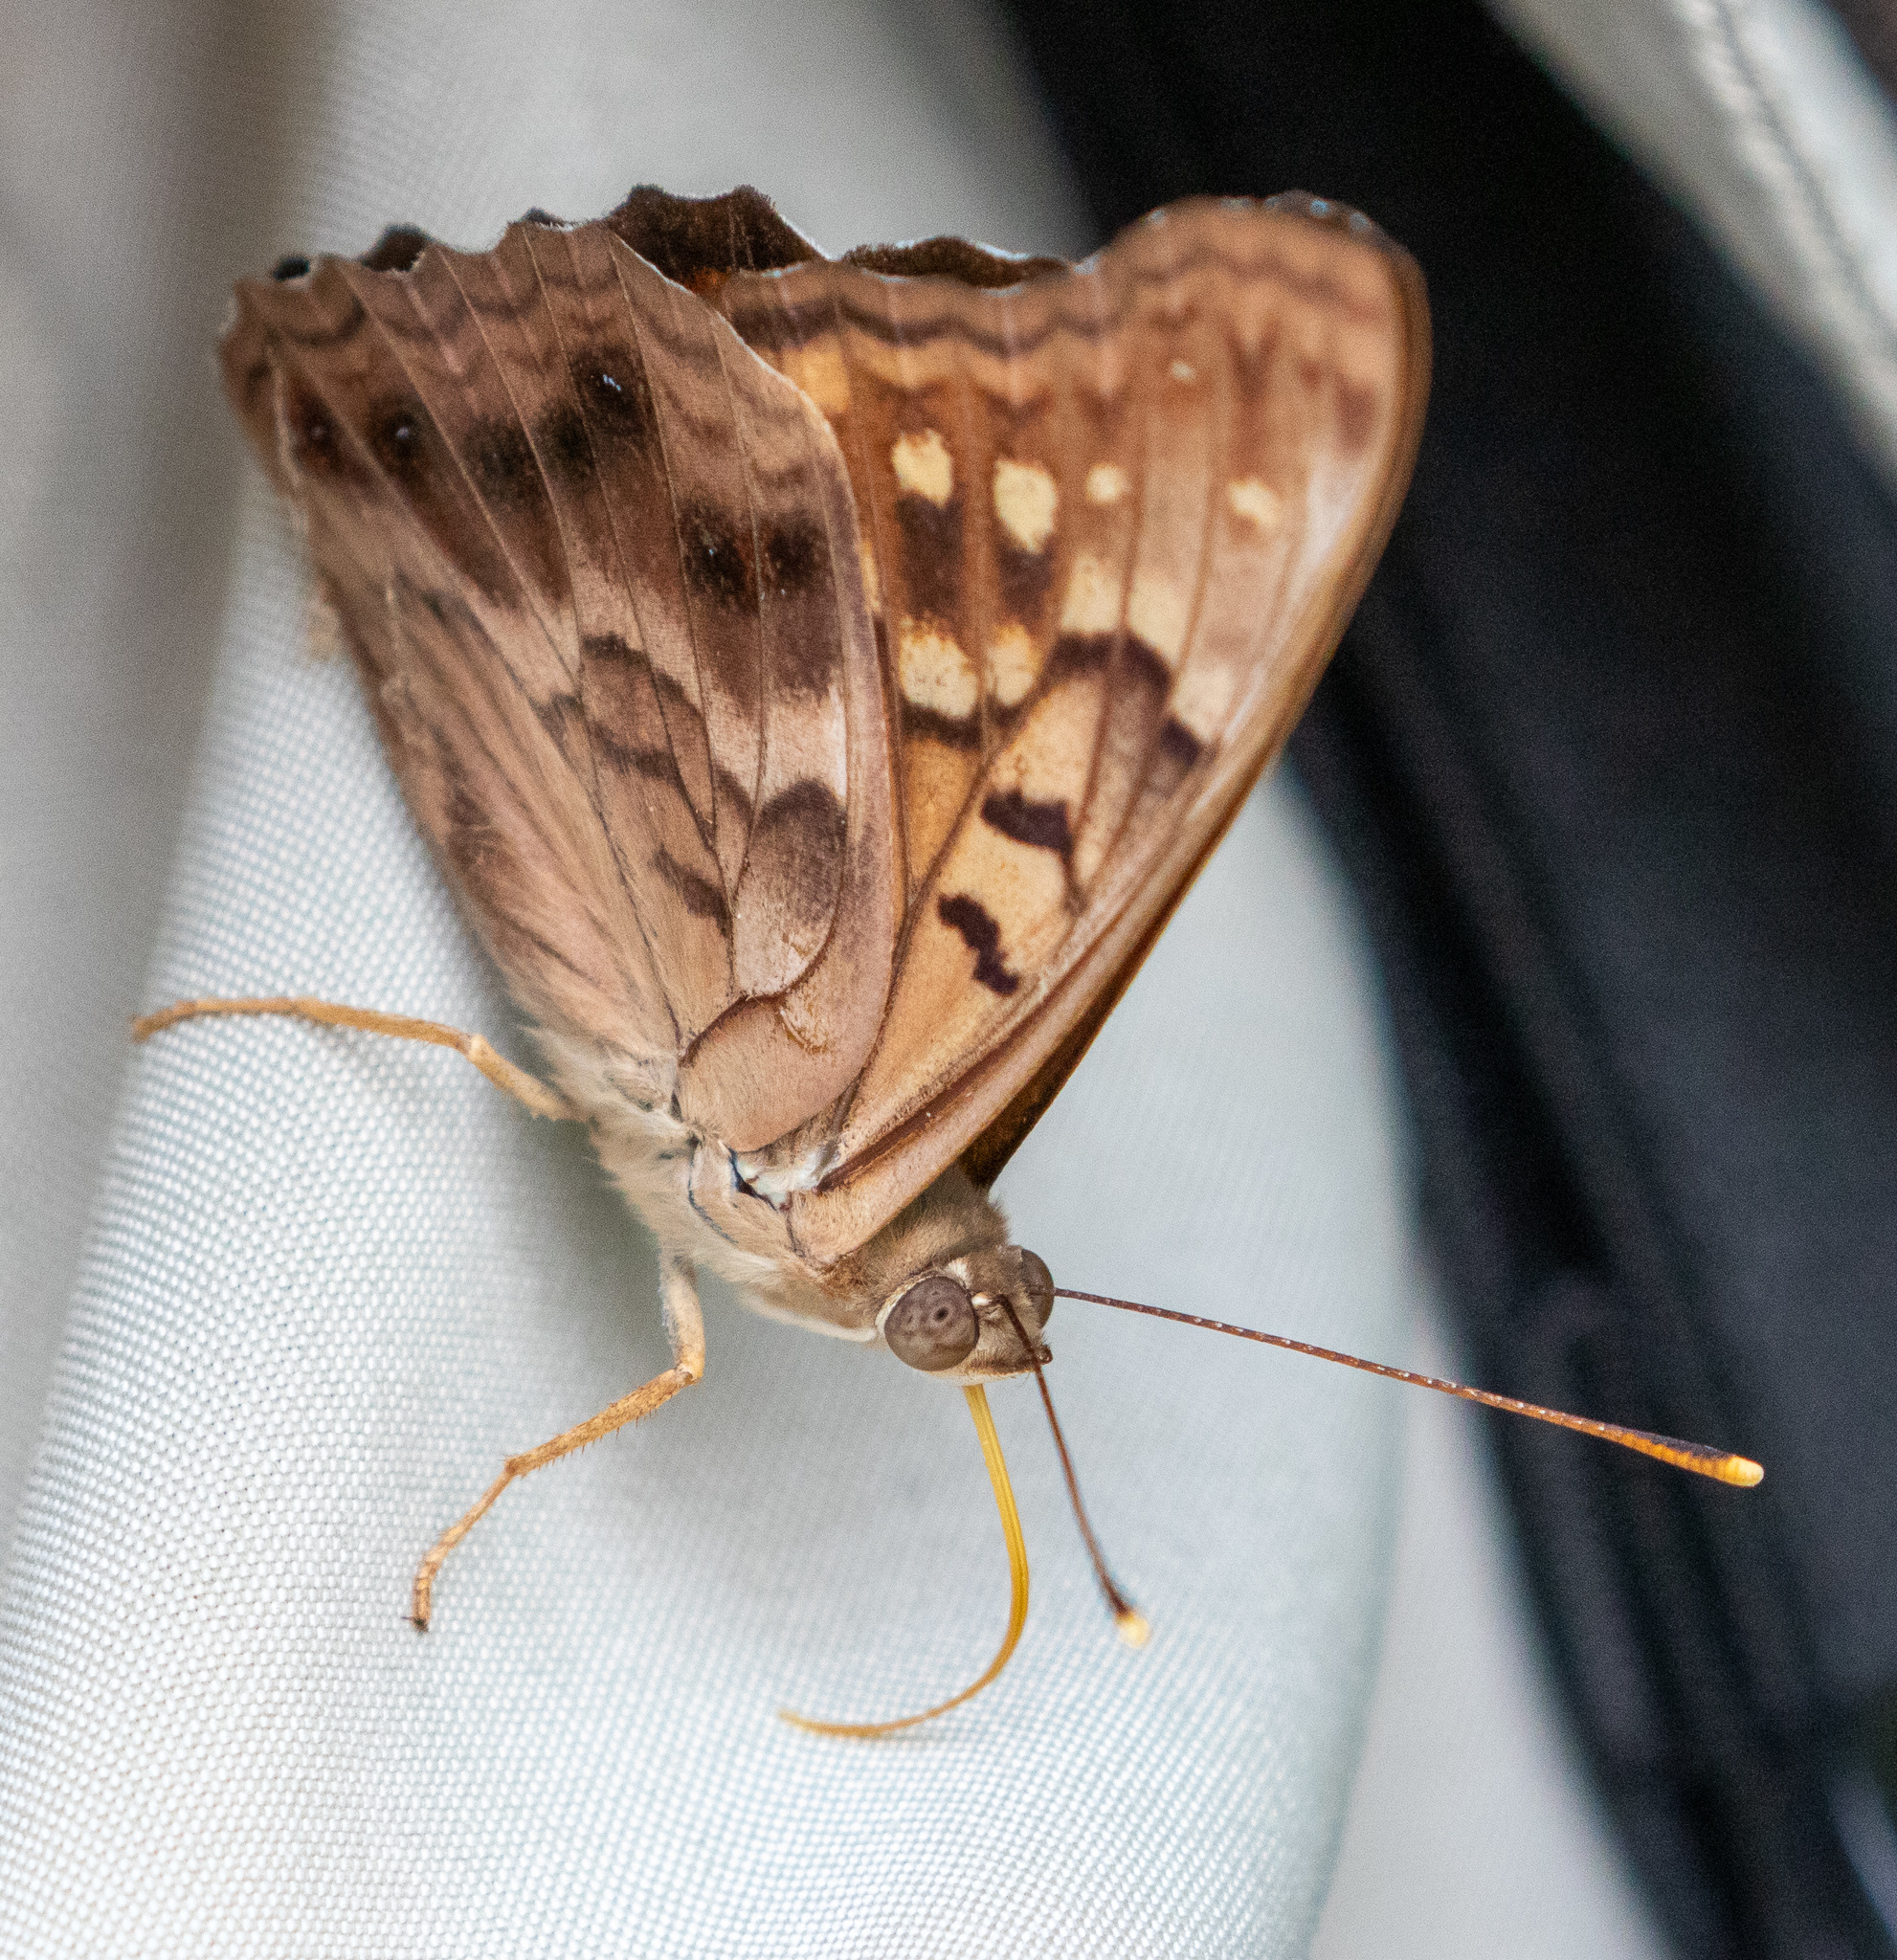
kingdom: Animalia
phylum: Arthropoda
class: Insecta
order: Lepidoptera
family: Nymphalidae
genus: Asterocampa
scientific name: Asterocampa clyton
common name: Tawny emperor
